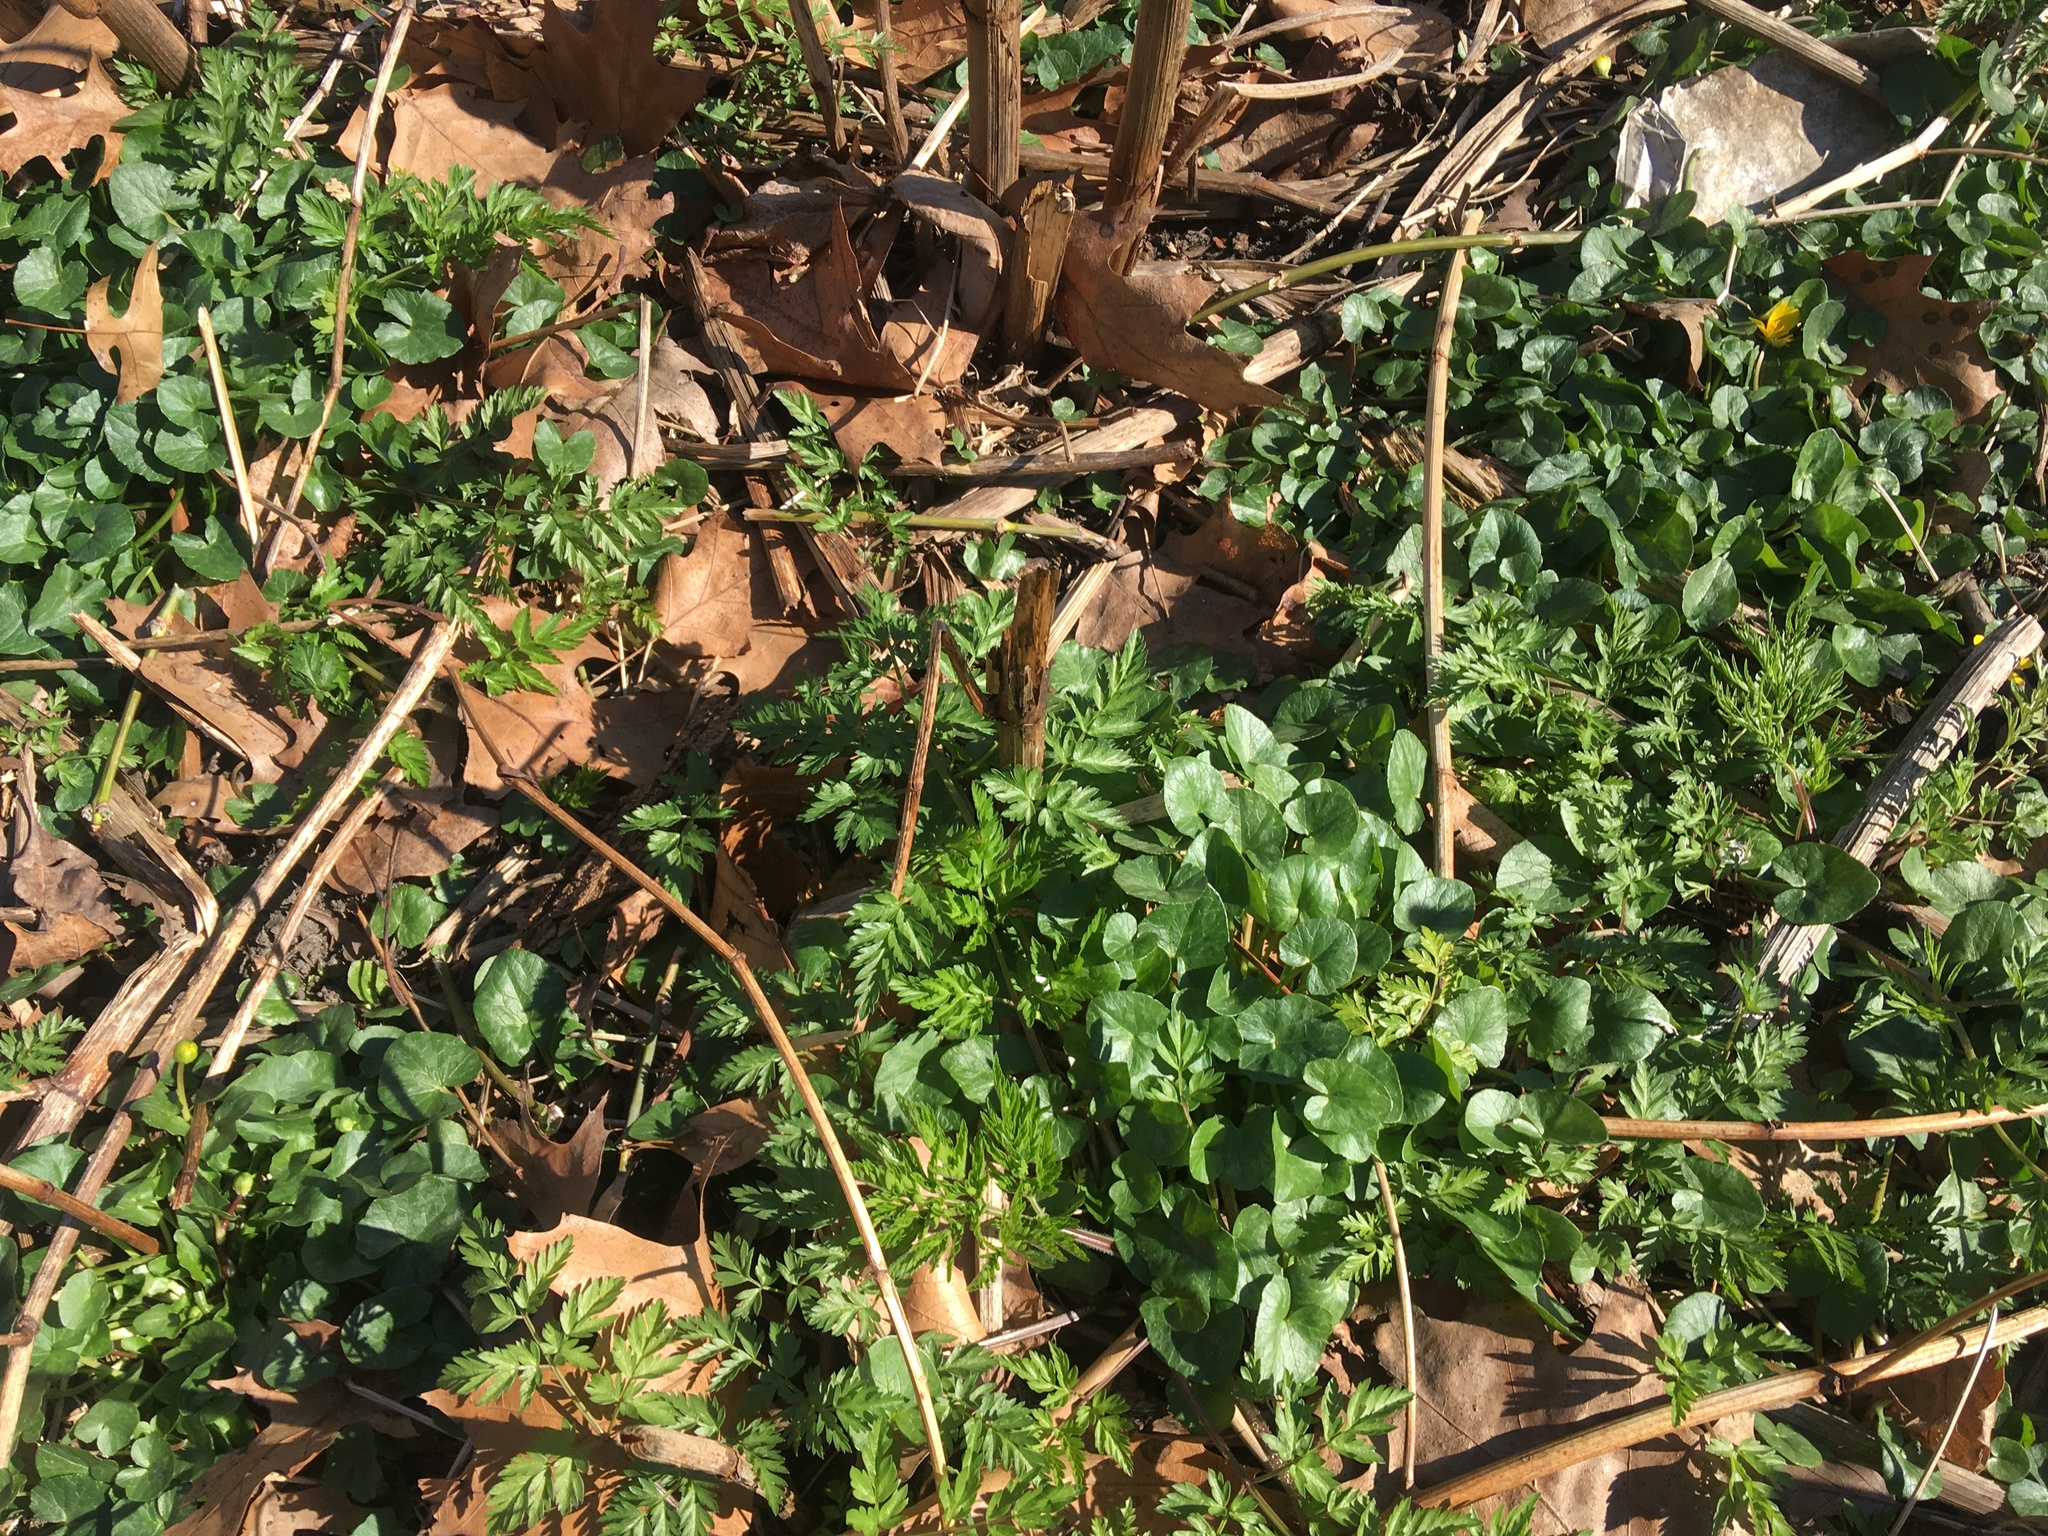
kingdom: Plantae
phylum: Tracheophyta
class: Magnoliopsida
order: Ranunculales
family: Ranunculaceae
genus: Ficaria
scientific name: Ficaria verna
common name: Lesser celandine
